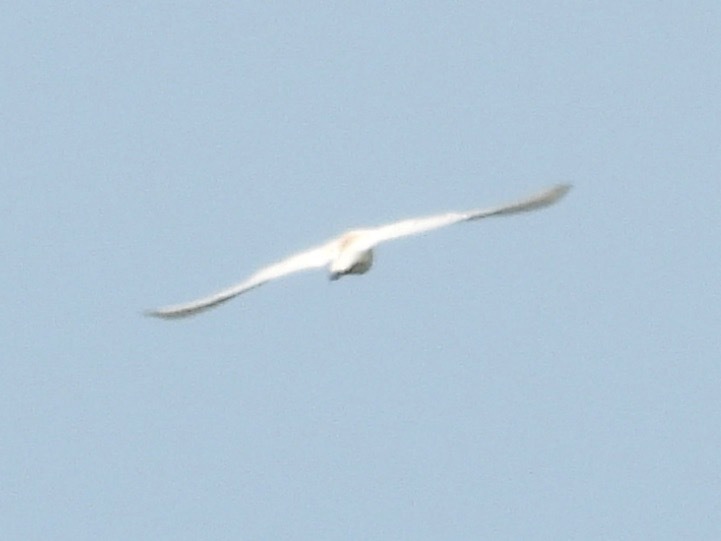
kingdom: Animalia
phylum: Chordata
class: Aves
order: Pelecaniformes
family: Ardeidae
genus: Bubulcus
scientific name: Bubulcus ibis
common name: Cattle egret
